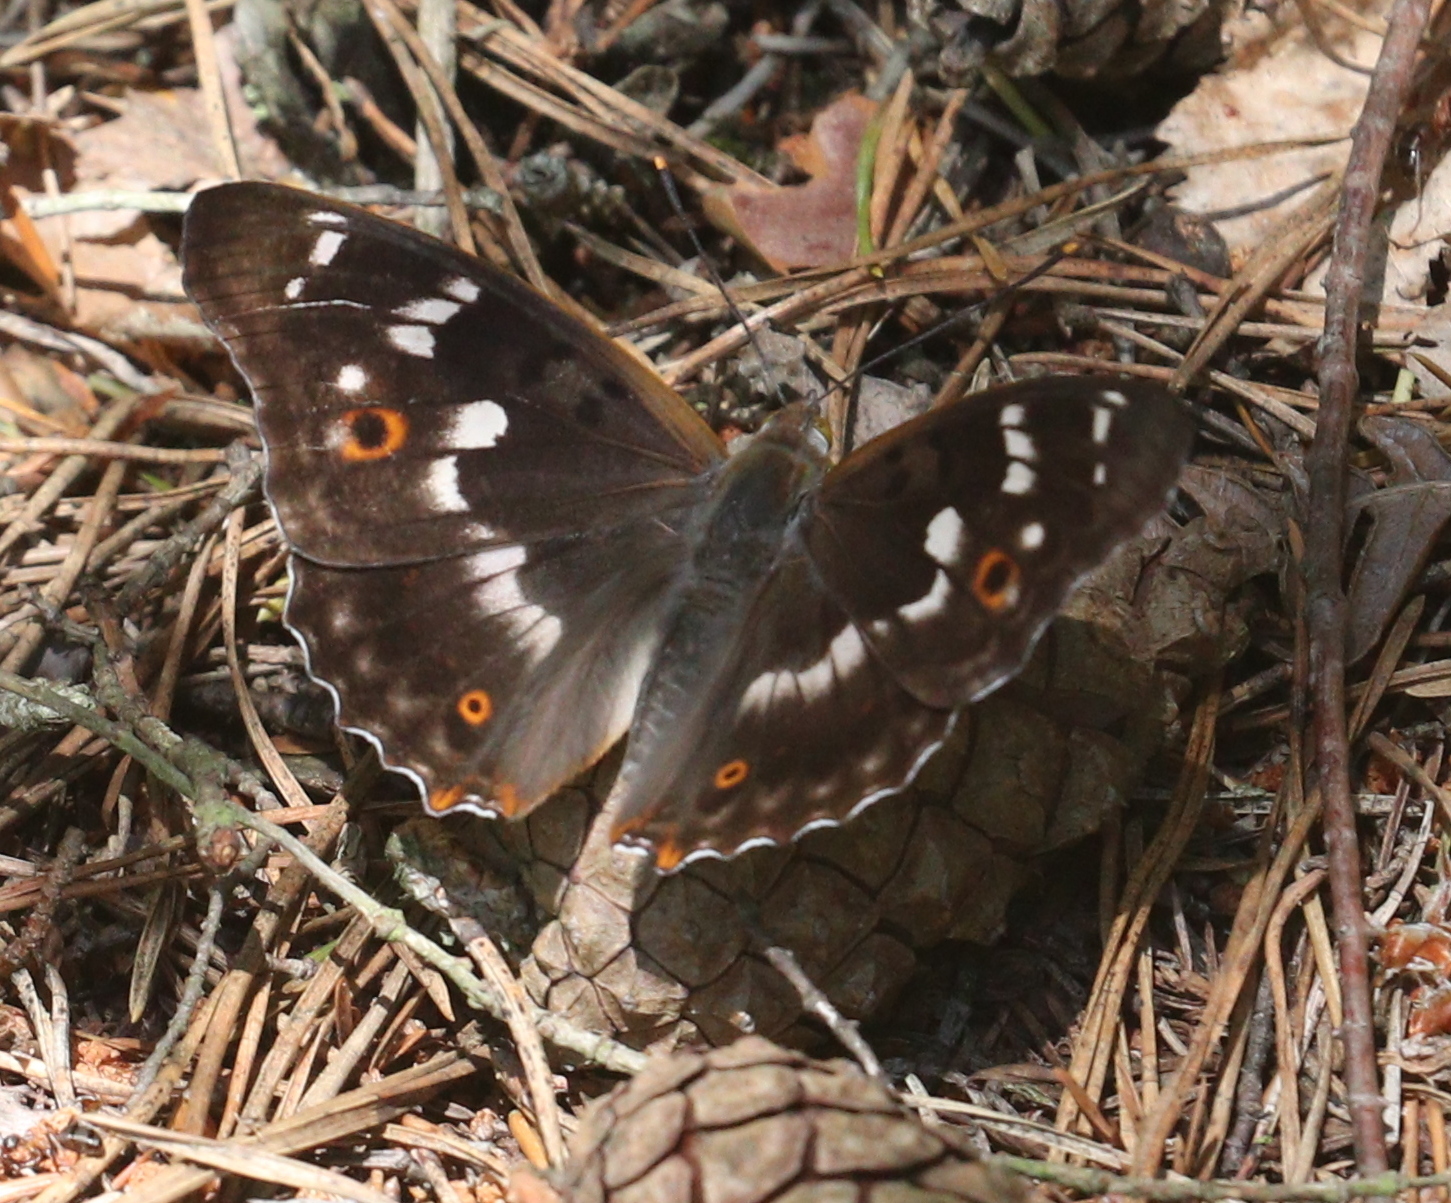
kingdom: Animalia
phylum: Arthropoda
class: Insecta
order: Lepidoptera
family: Nymphalidae
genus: Apatura
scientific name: Apatura ilia
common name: Lesser purple emperor
